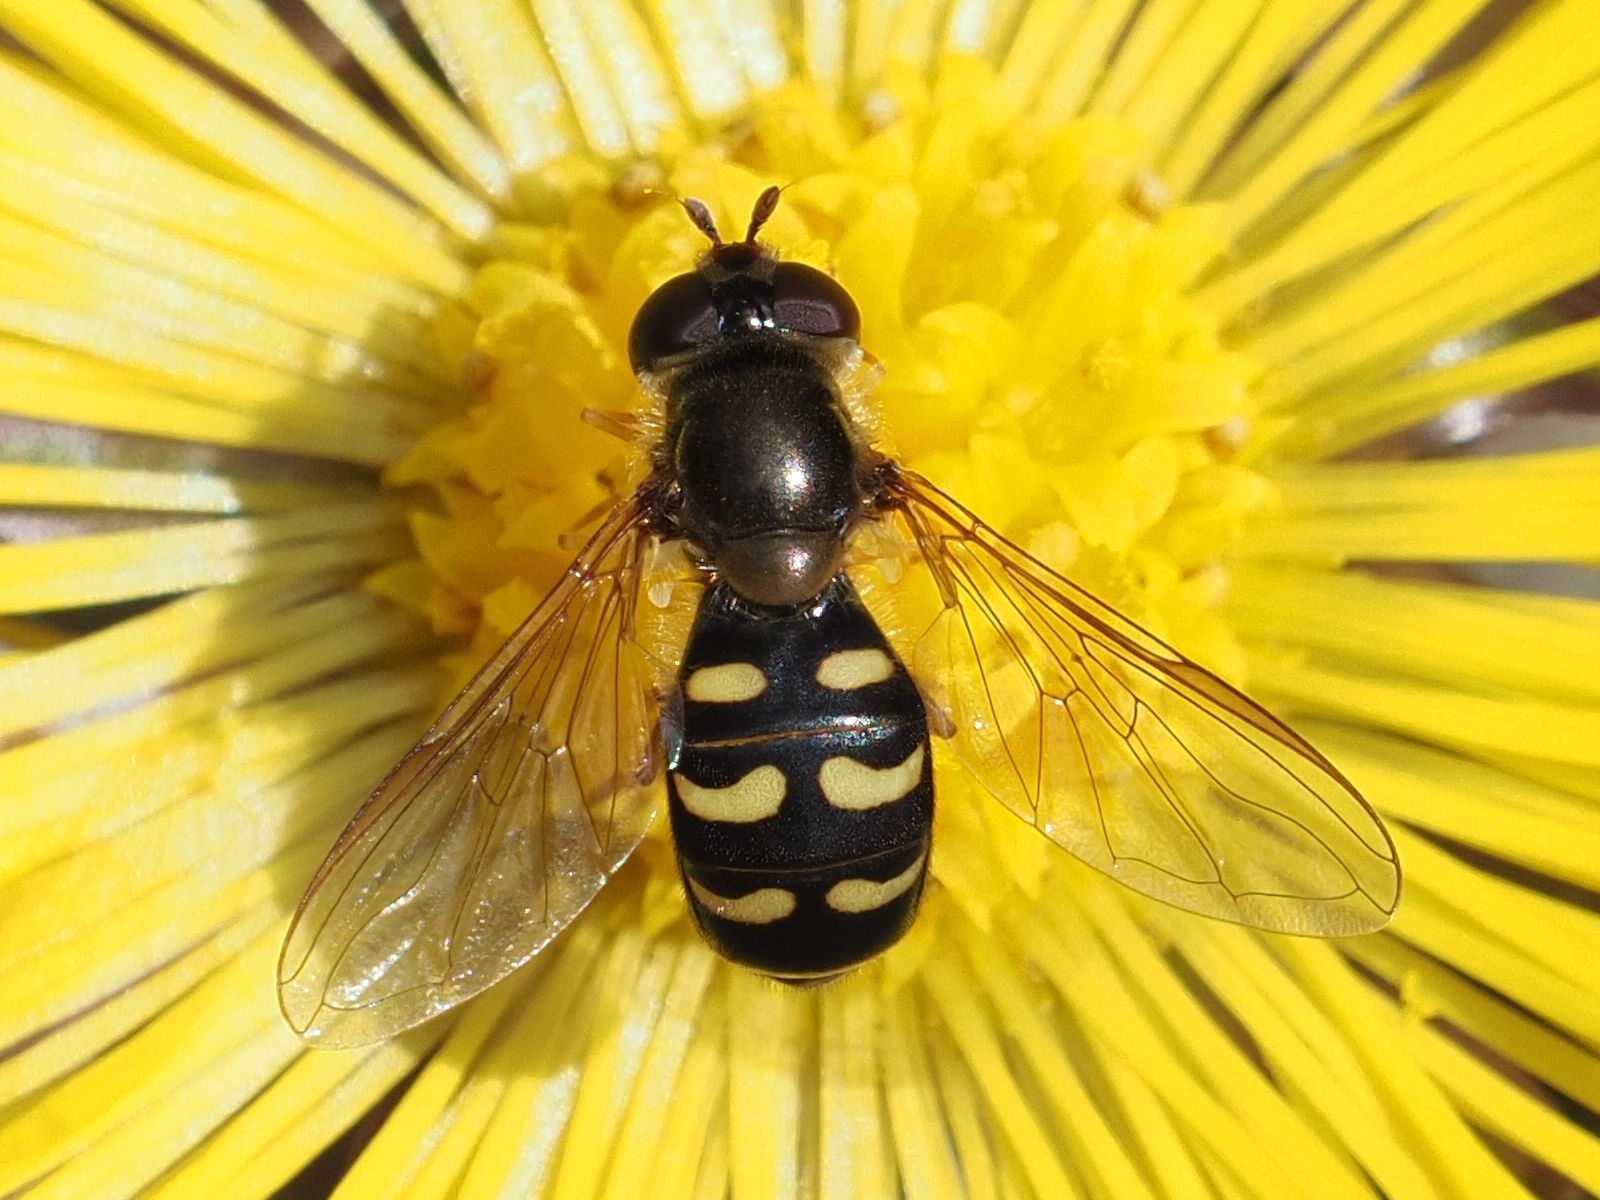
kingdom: Animalia
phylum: Arthropoda
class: Insecta
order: Diptera
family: Syrphidae
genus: Lapposyrphus
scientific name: Lapposyrphus lapponicus
